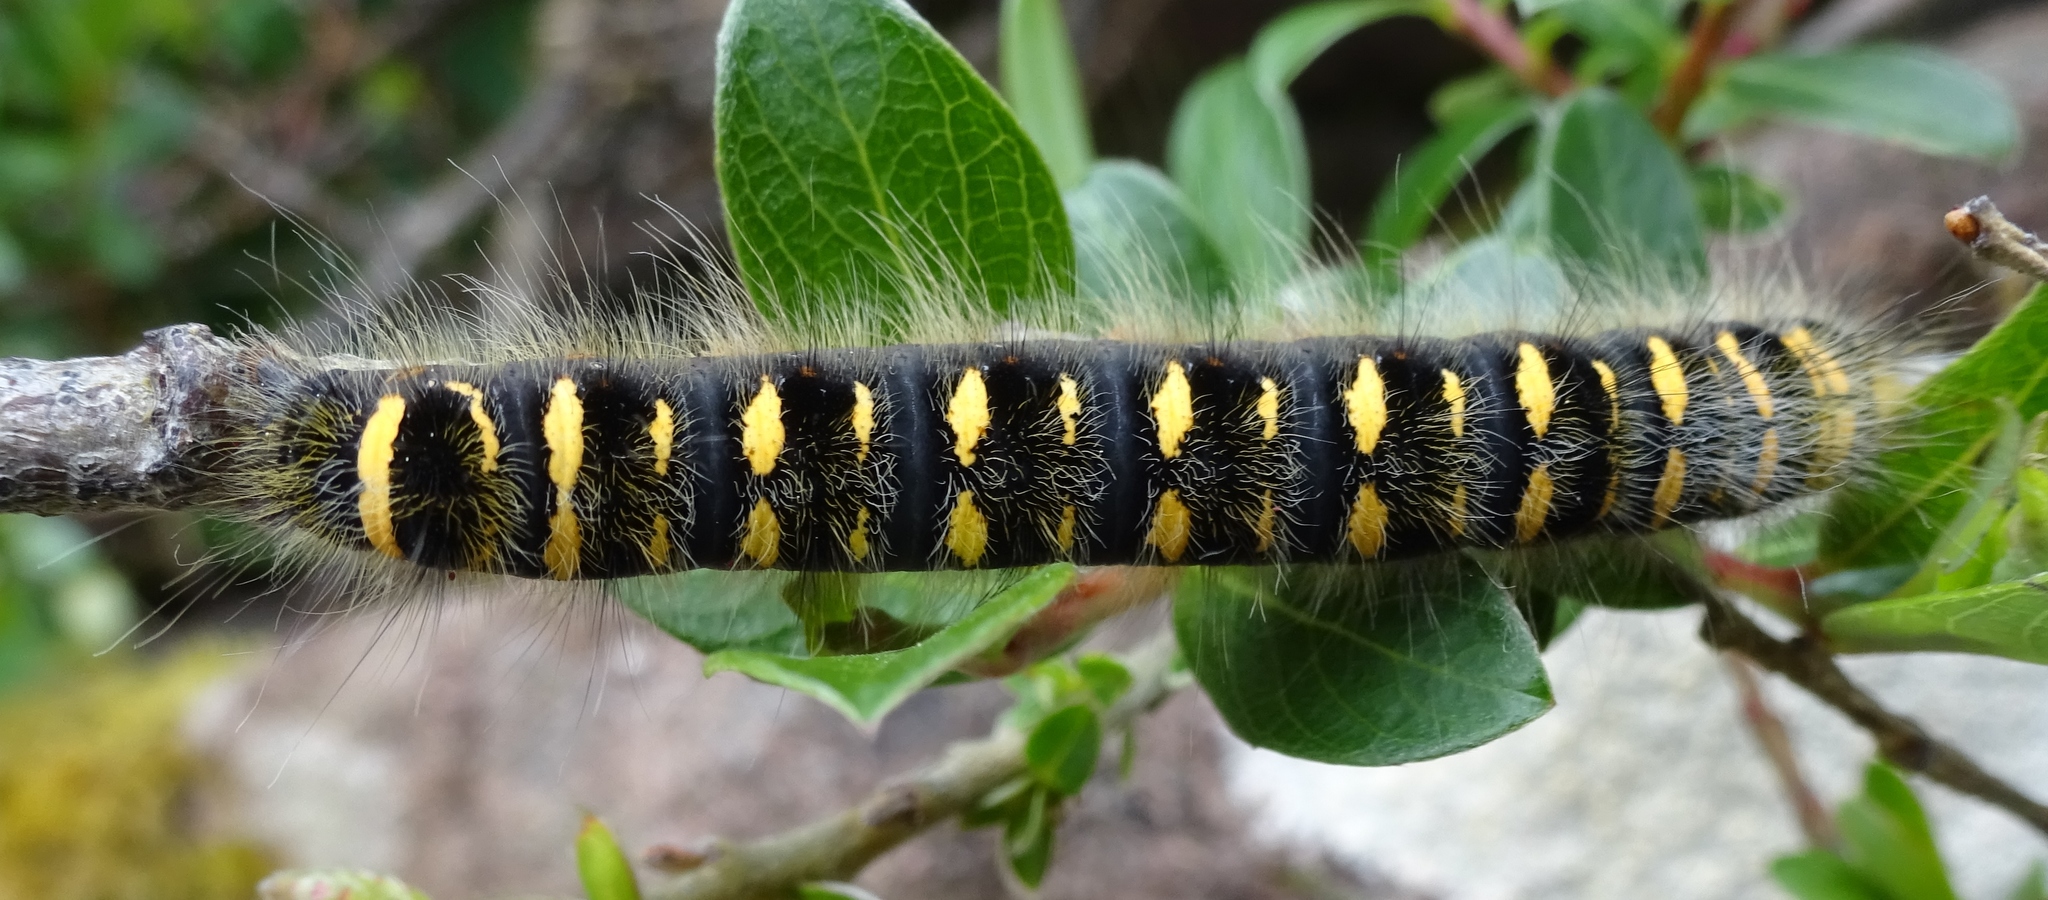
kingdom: Animalia
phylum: Arthropoda
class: Insecta
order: Lepidoptera
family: Lasiocampidae
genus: Trichiura
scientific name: Trichiura crataegi
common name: Pale eggar
